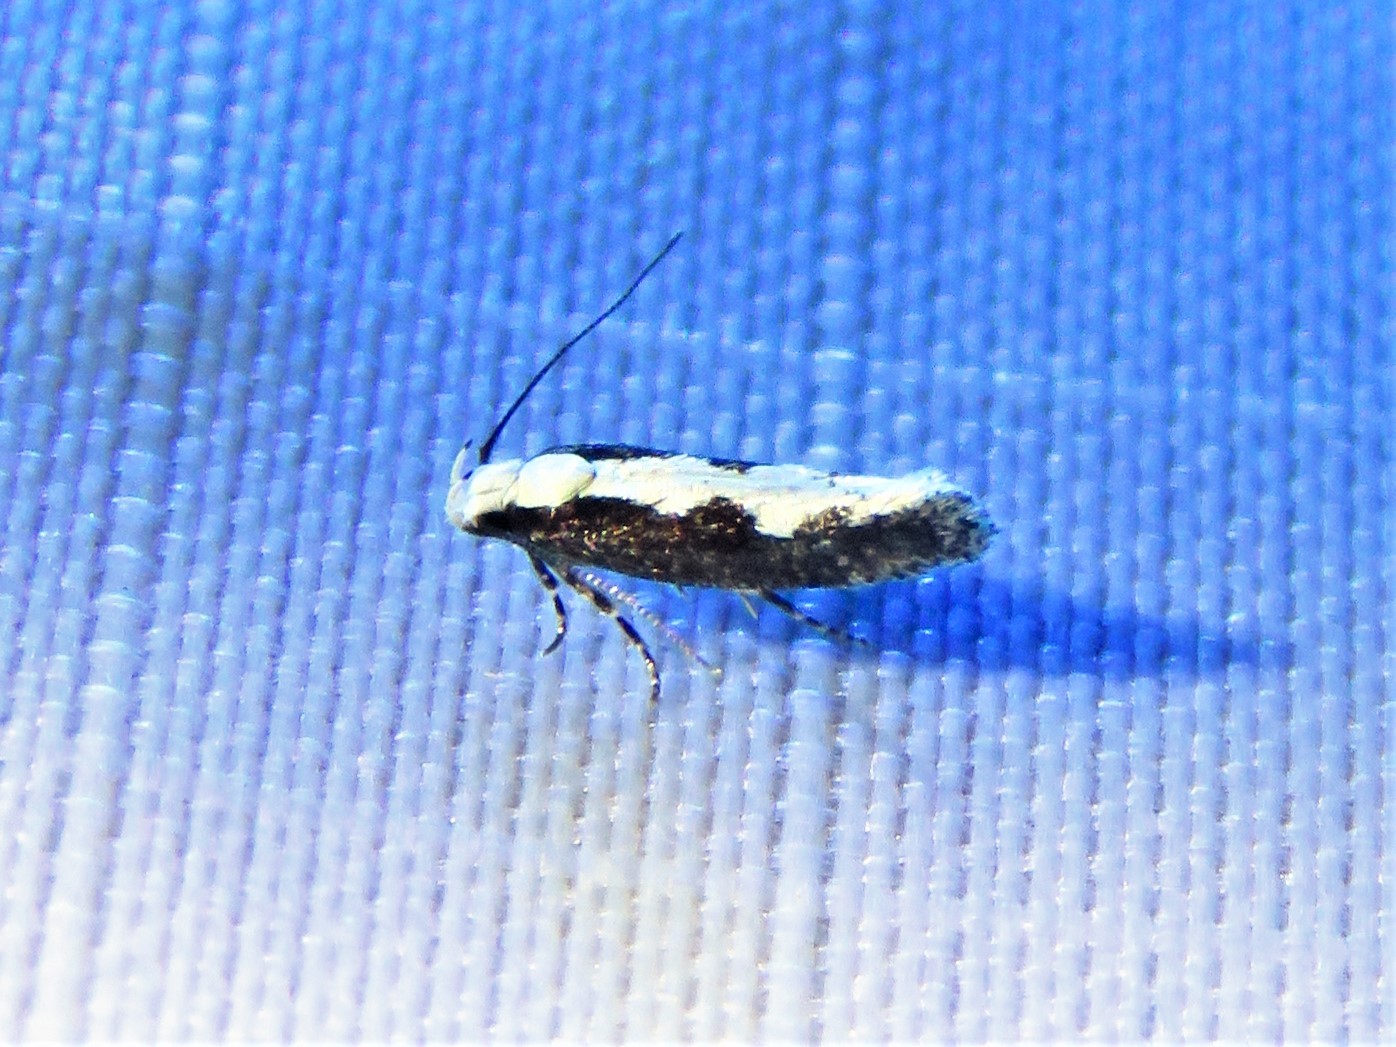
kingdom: Animalia
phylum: Arthropoda
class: Insecta
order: Lepidoptera
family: Gelechiidae
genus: Agnippe
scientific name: Agnippe prunifoliella
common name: Skunk twirler
